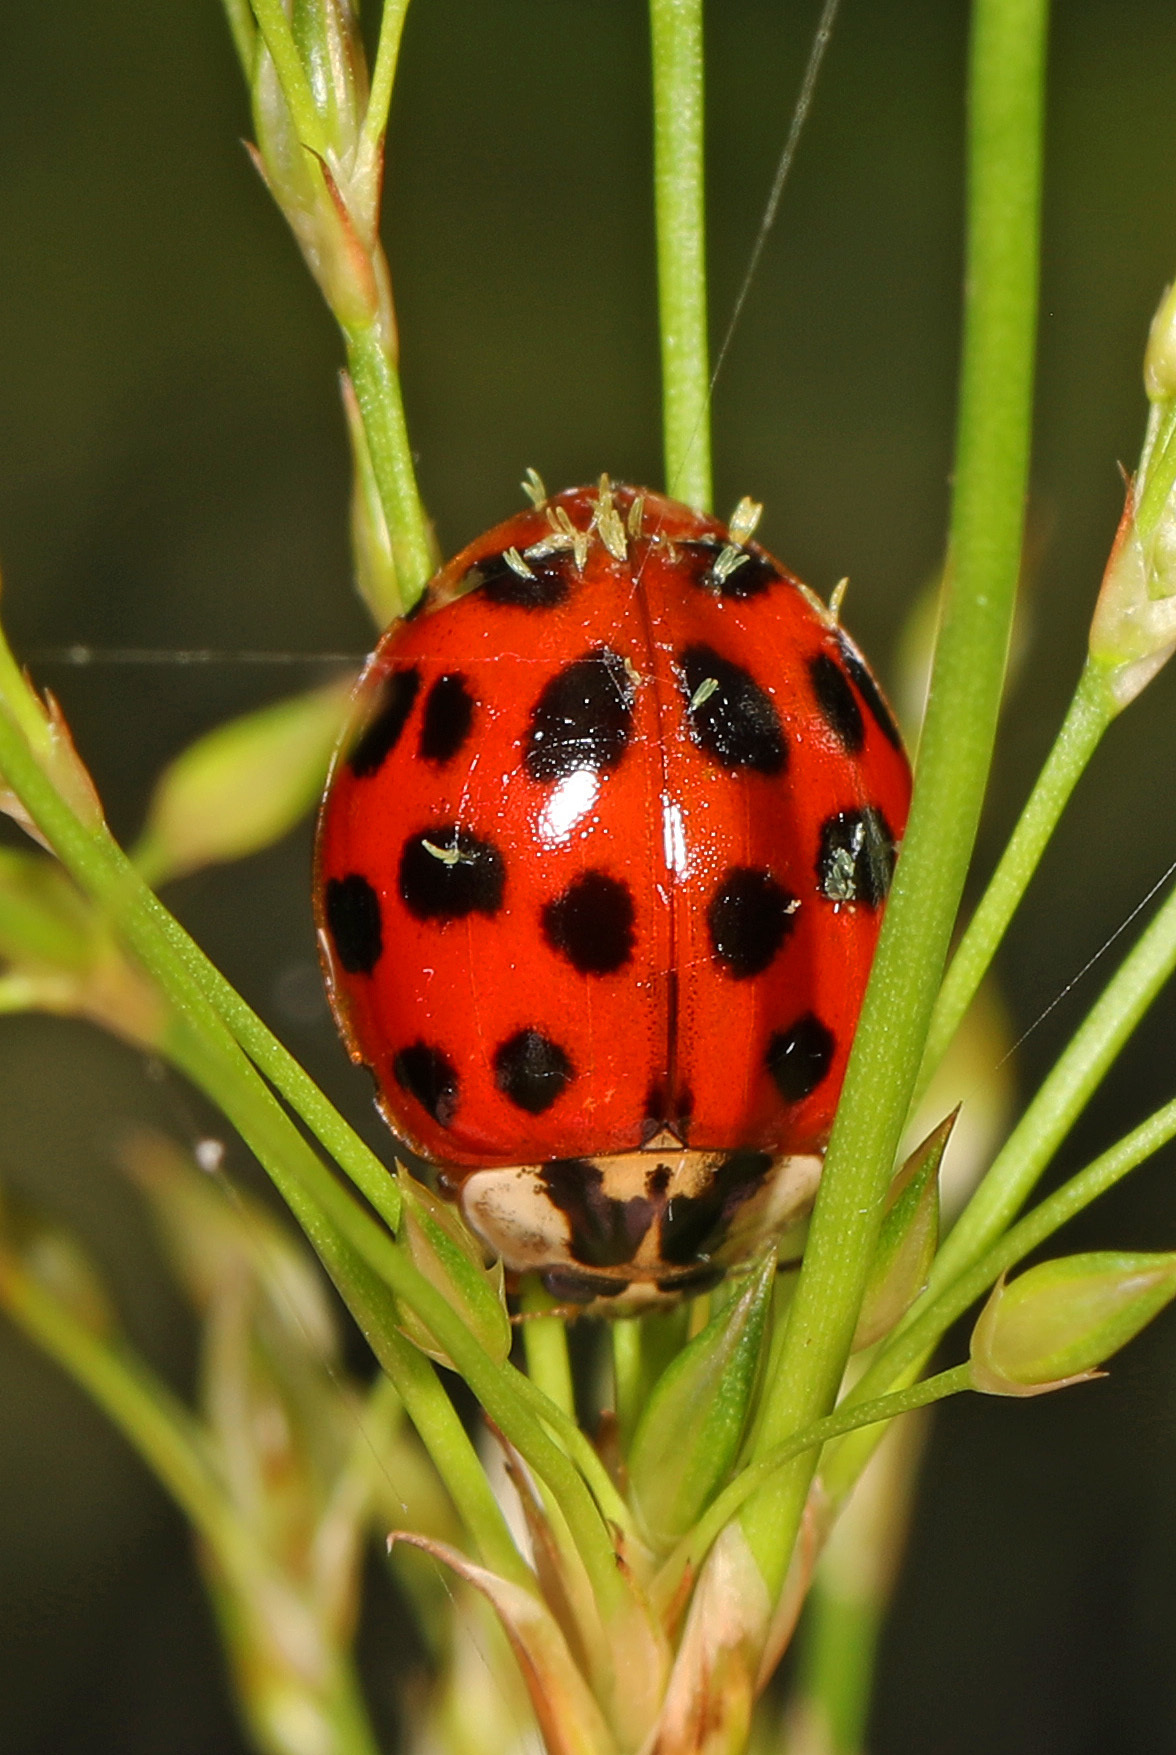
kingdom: Animalia
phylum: Arthropoda
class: Insecta
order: Coleoptera
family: Coccinellidae
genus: Harmonia
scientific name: Harmonia axyridis
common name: Harlequin ladybird
